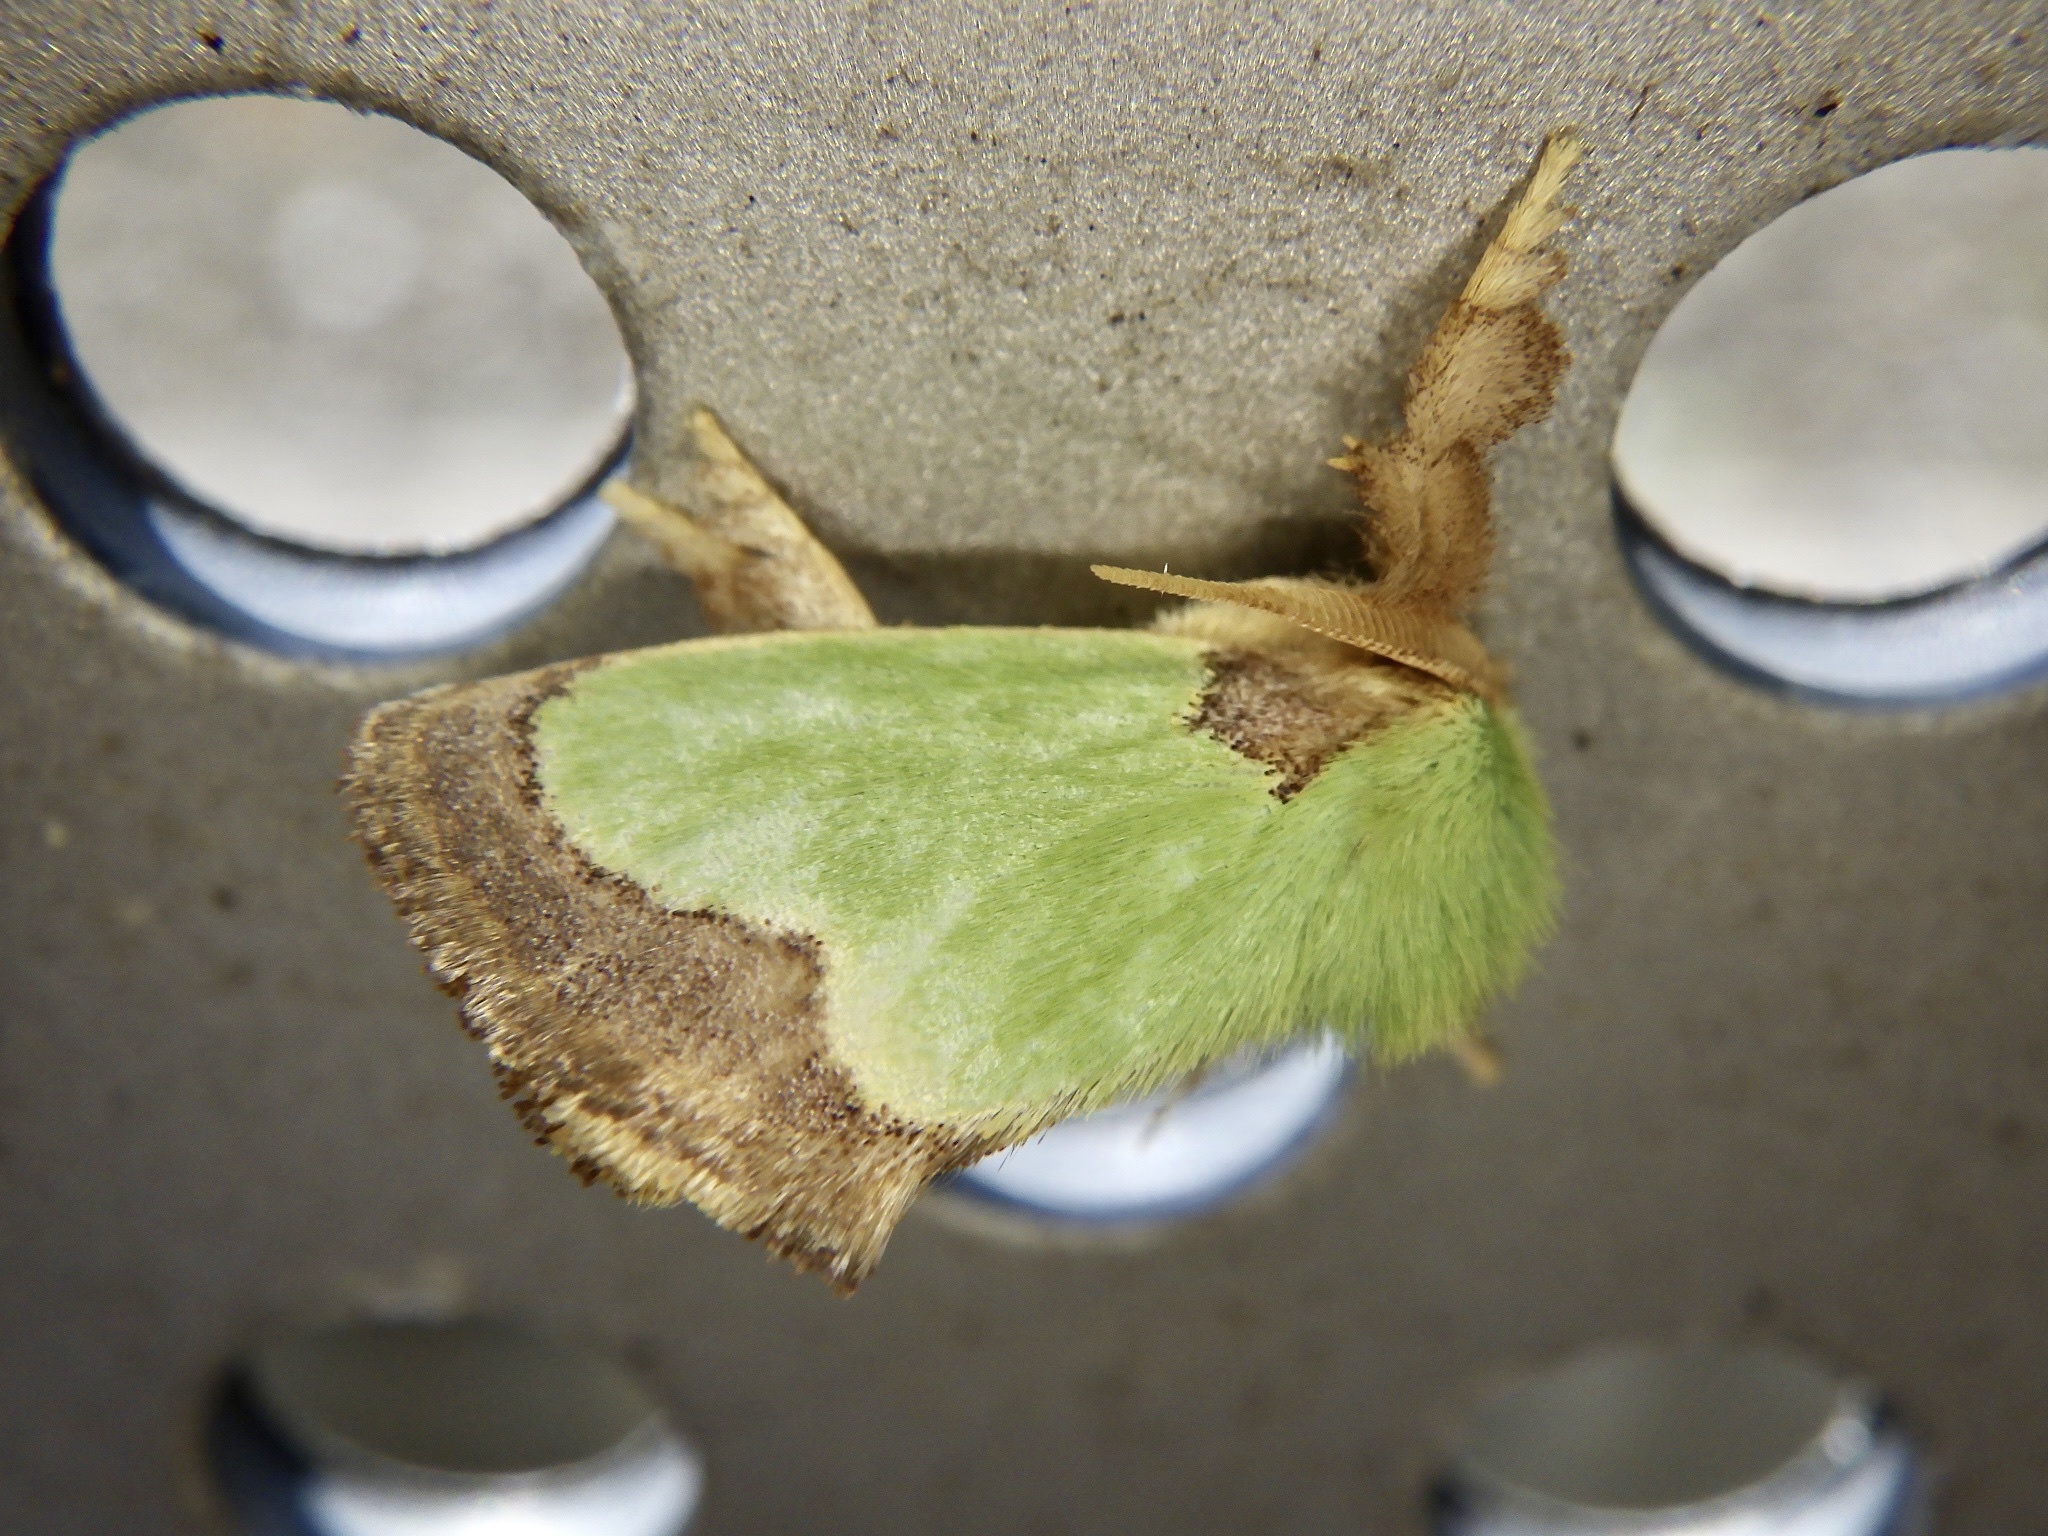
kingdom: Animalia
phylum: Arthropoda
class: Insecta
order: Lepidoptera
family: Limacodidae
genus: Parasa
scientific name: Parasa hilarula
